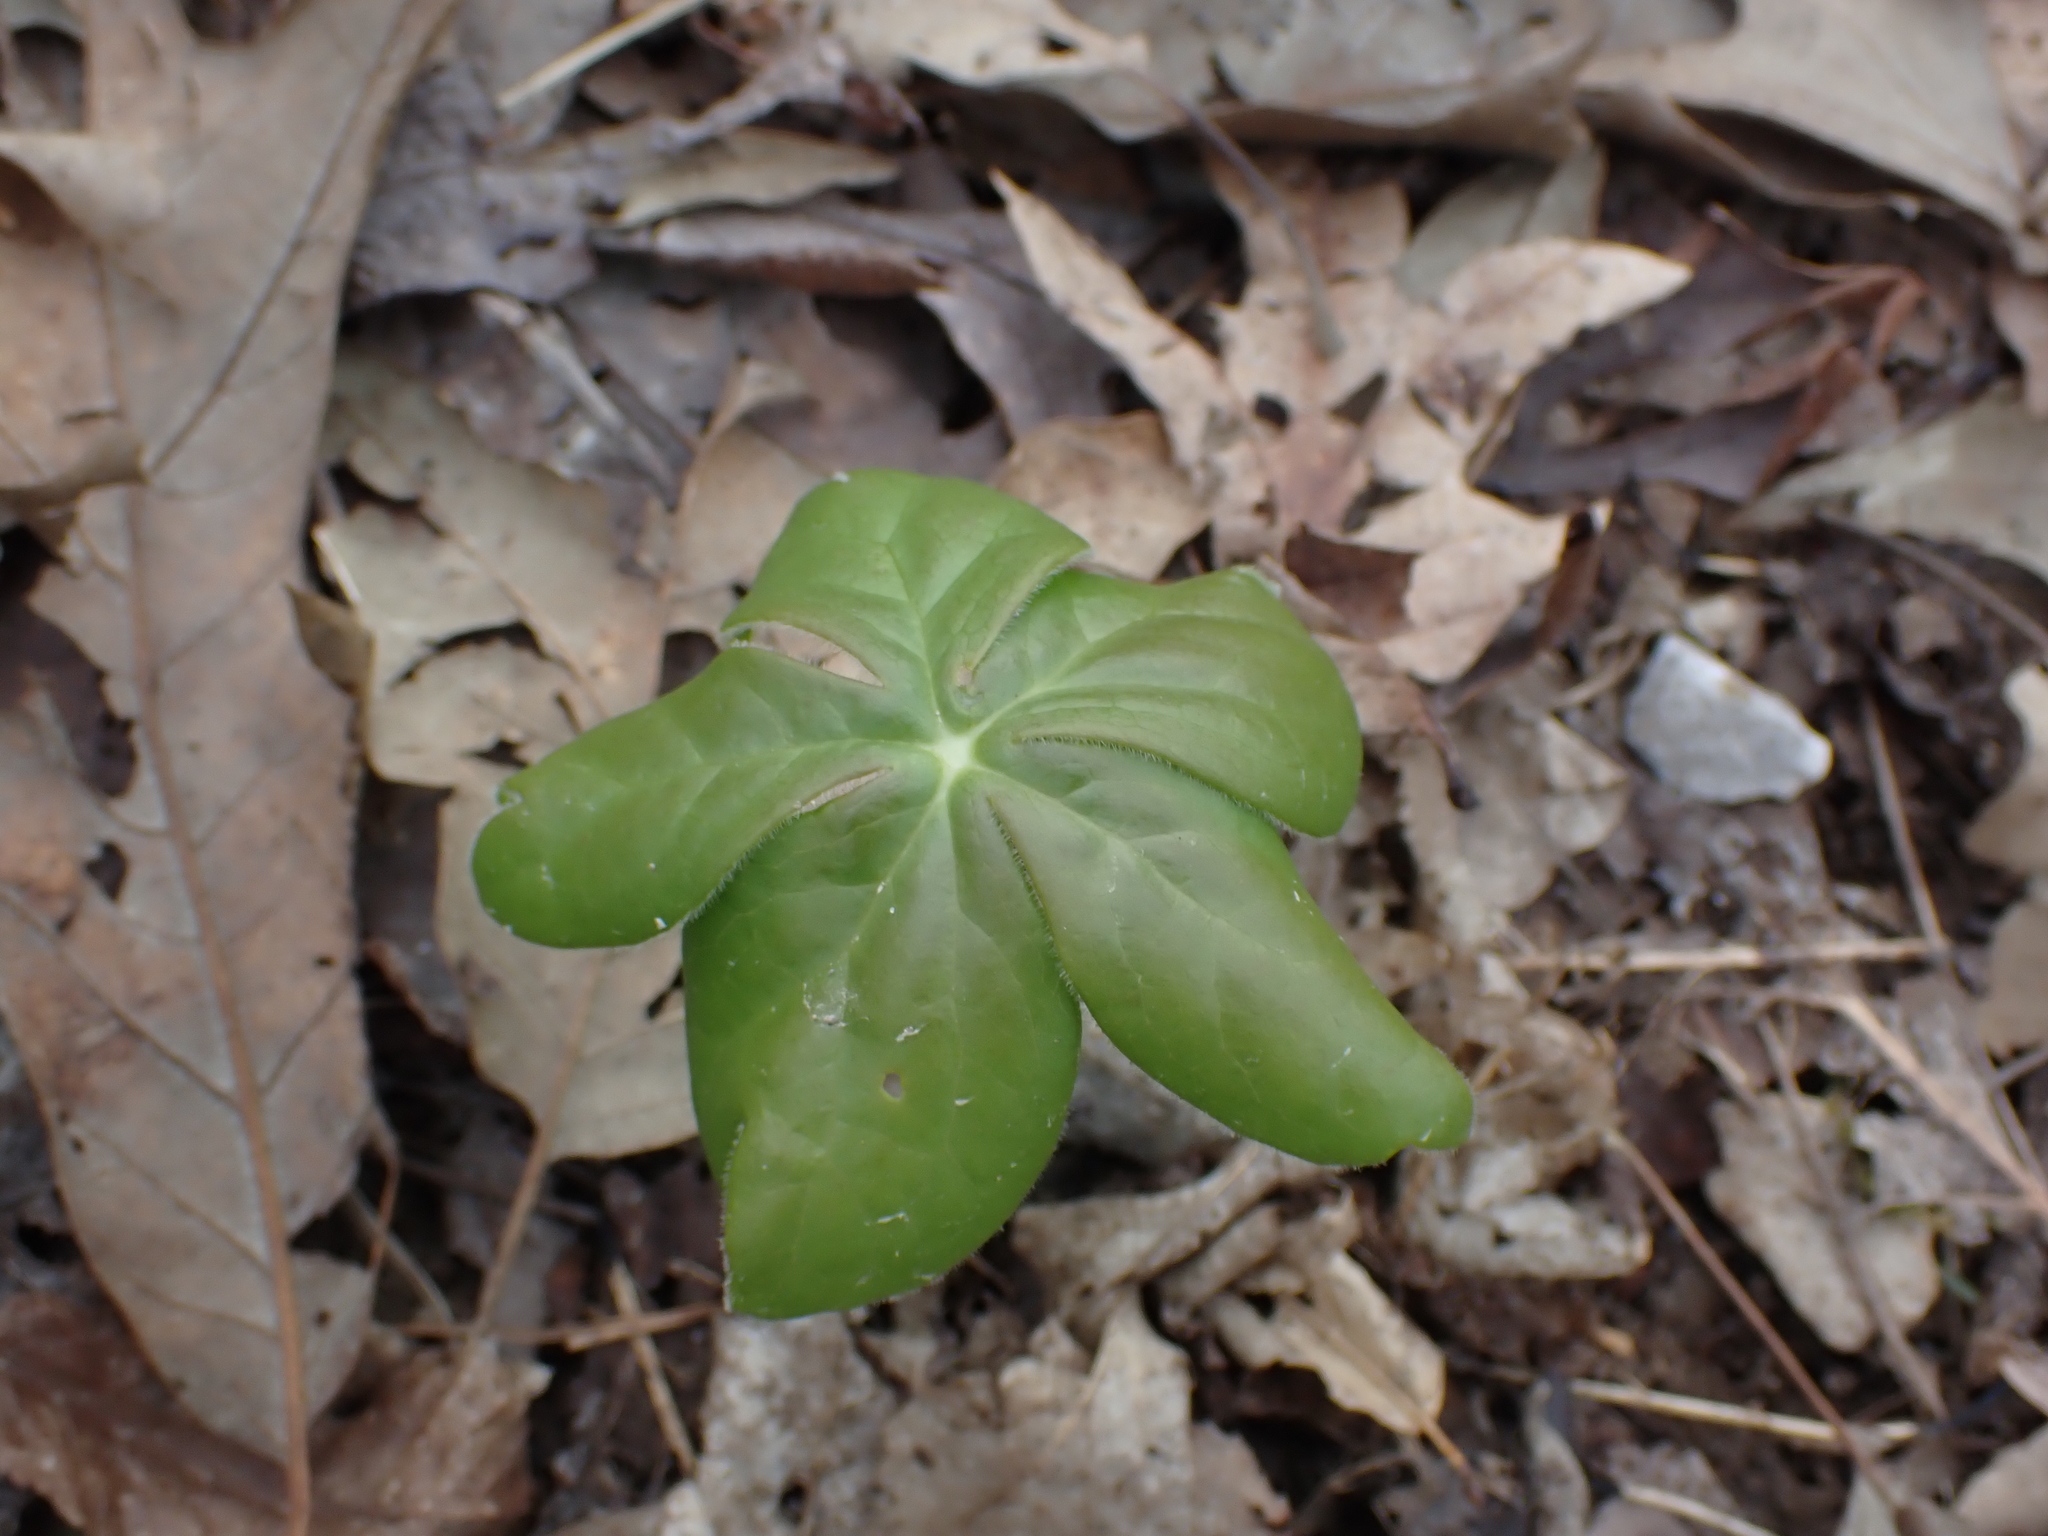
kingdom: Plantae
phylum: Tracheophyta
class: Magnoliopsida
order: Ranunculales
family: Berberidaceae
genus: Podophyllum
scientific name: Podophyllum peltatum
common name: Wild mandrake
